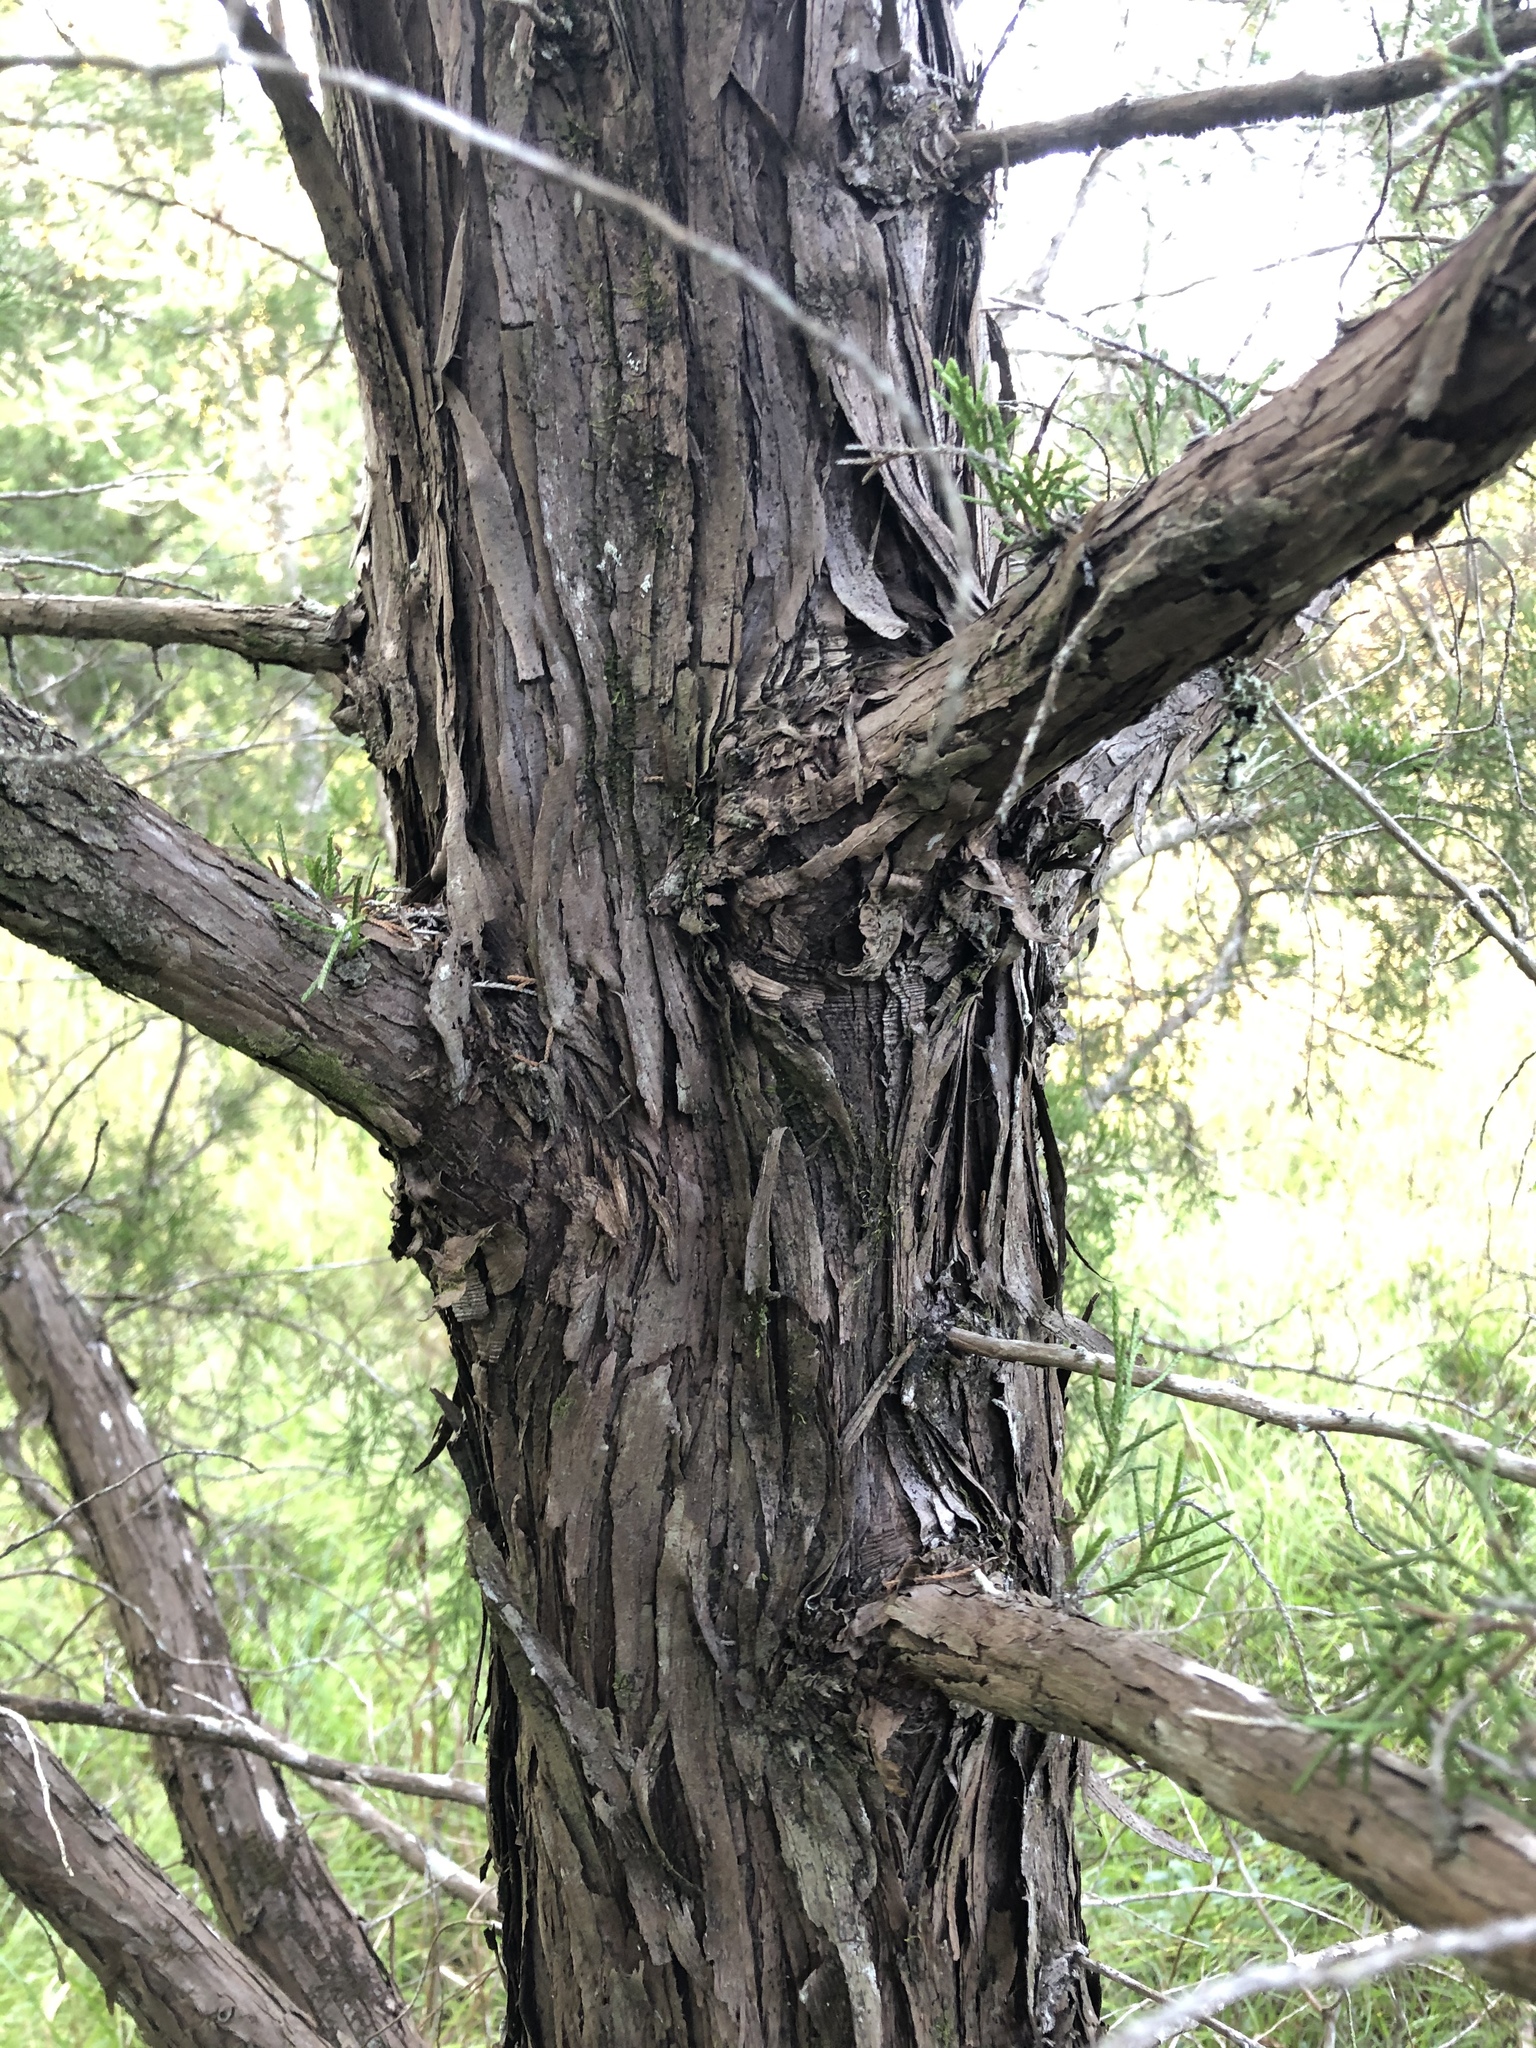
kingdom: Plantae
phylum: Tracheophyta
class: Pinopsida
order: Pinales
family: Cupressaceae
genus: Juniperus
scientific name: Juniperus virginiana
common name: Red juniper
